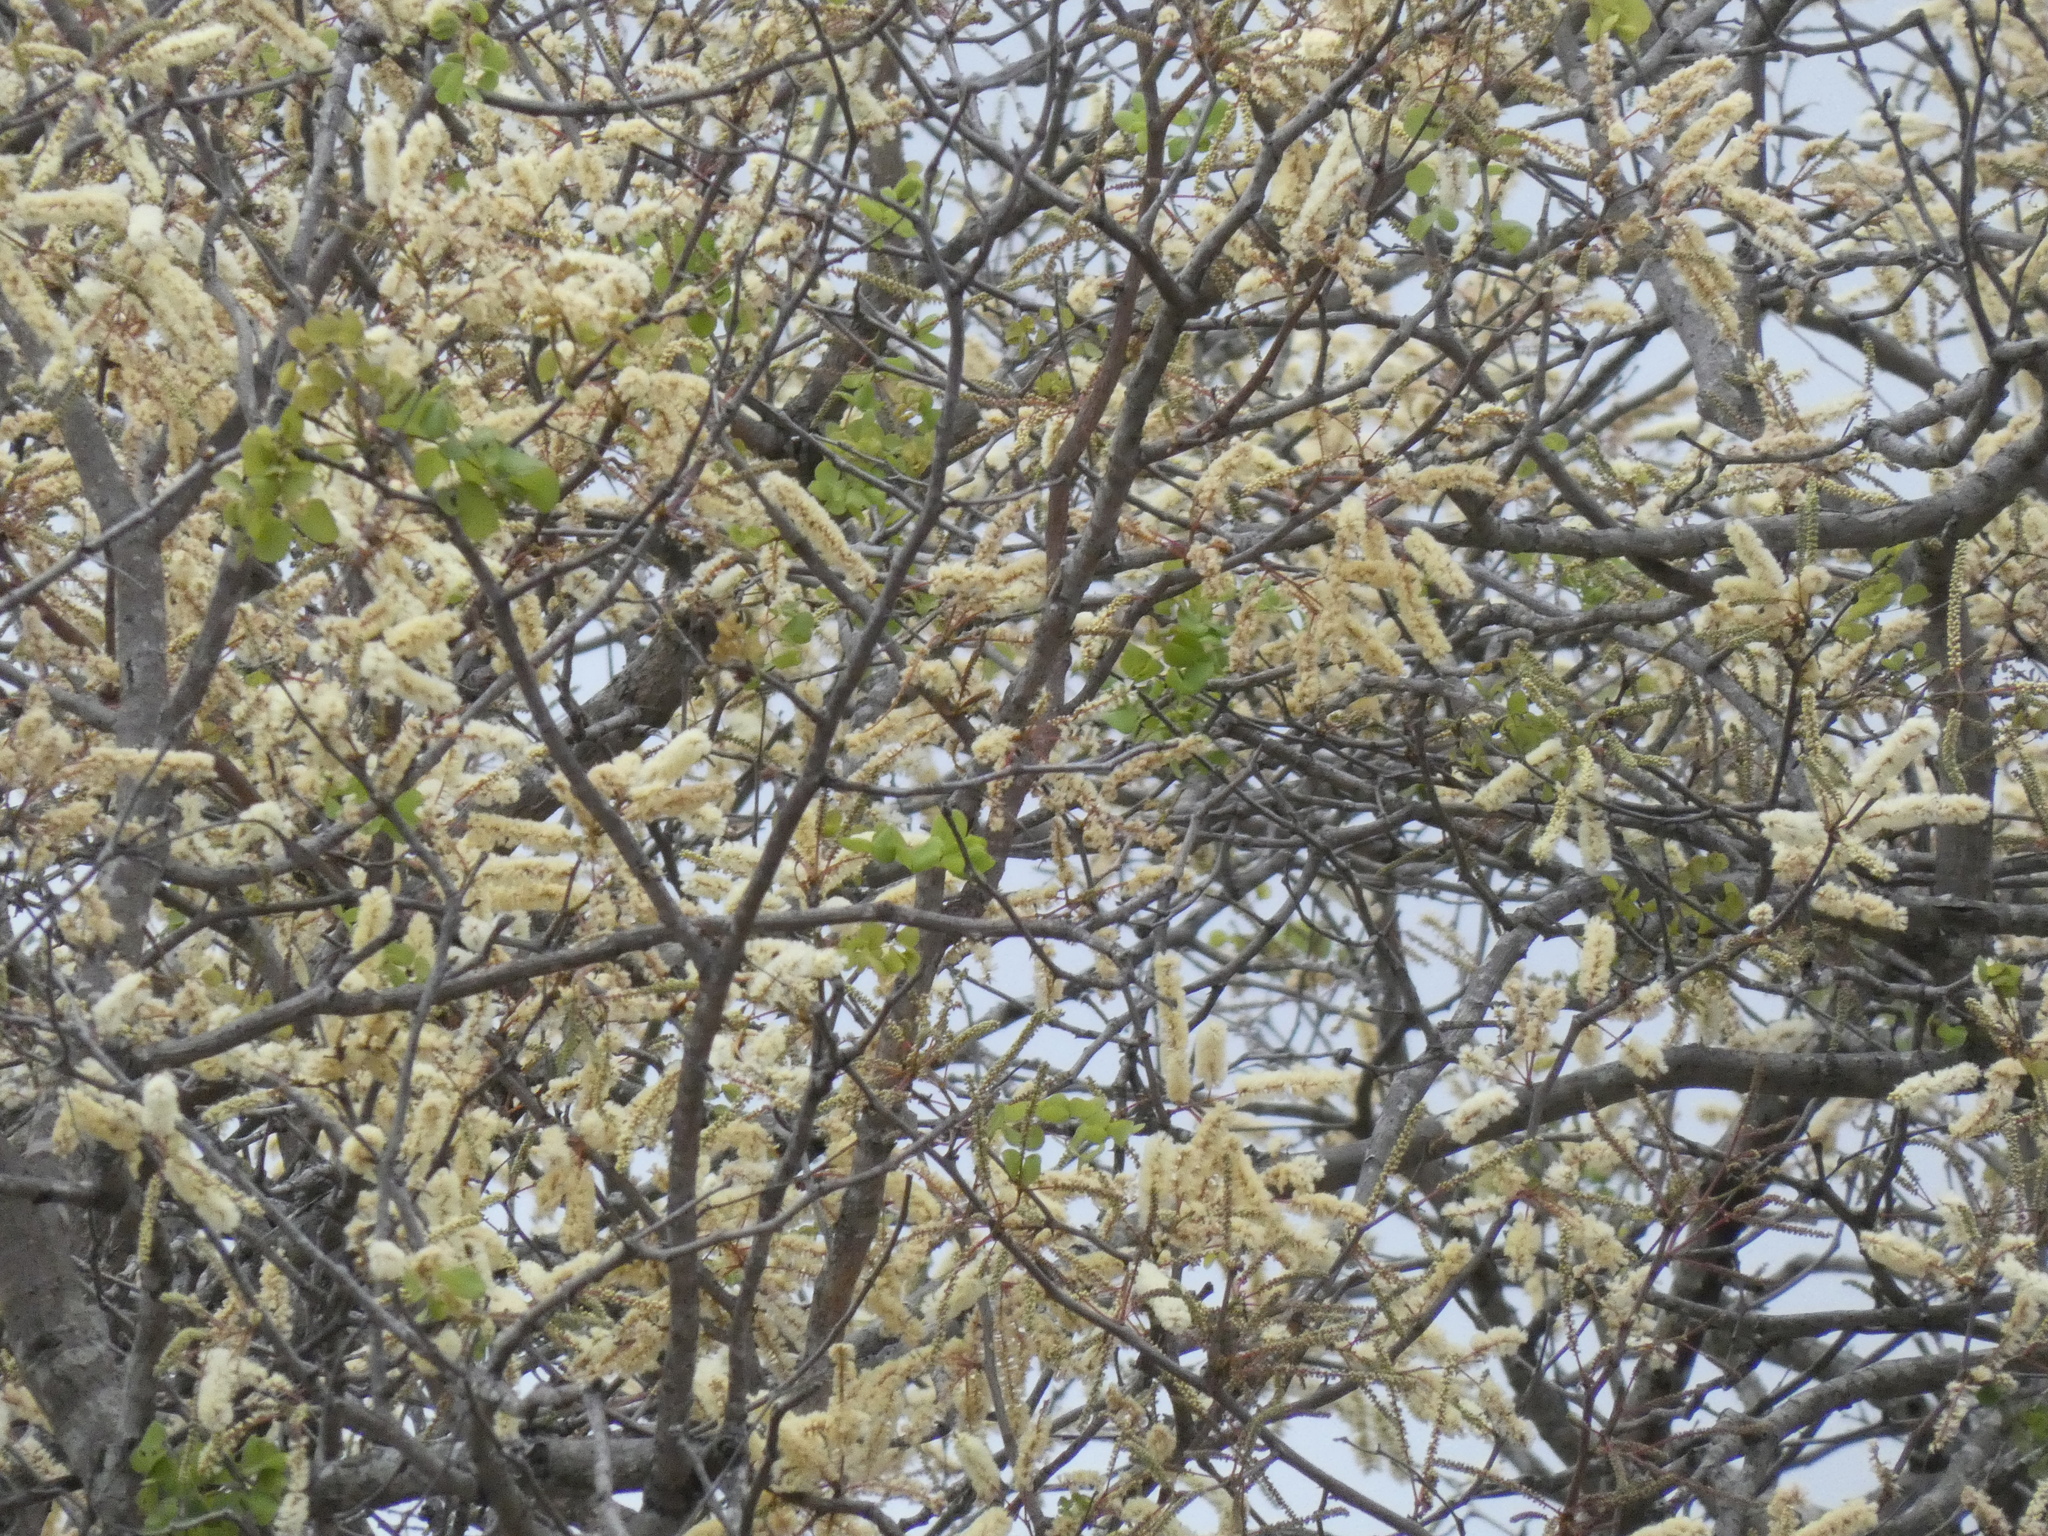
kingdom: Plantae
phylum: Tracheophyta
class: Magnoliopsida
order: Fabales
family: Fabaceae
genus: Senegalia
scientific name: Senegalia nigrescens
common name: Knobthorn
